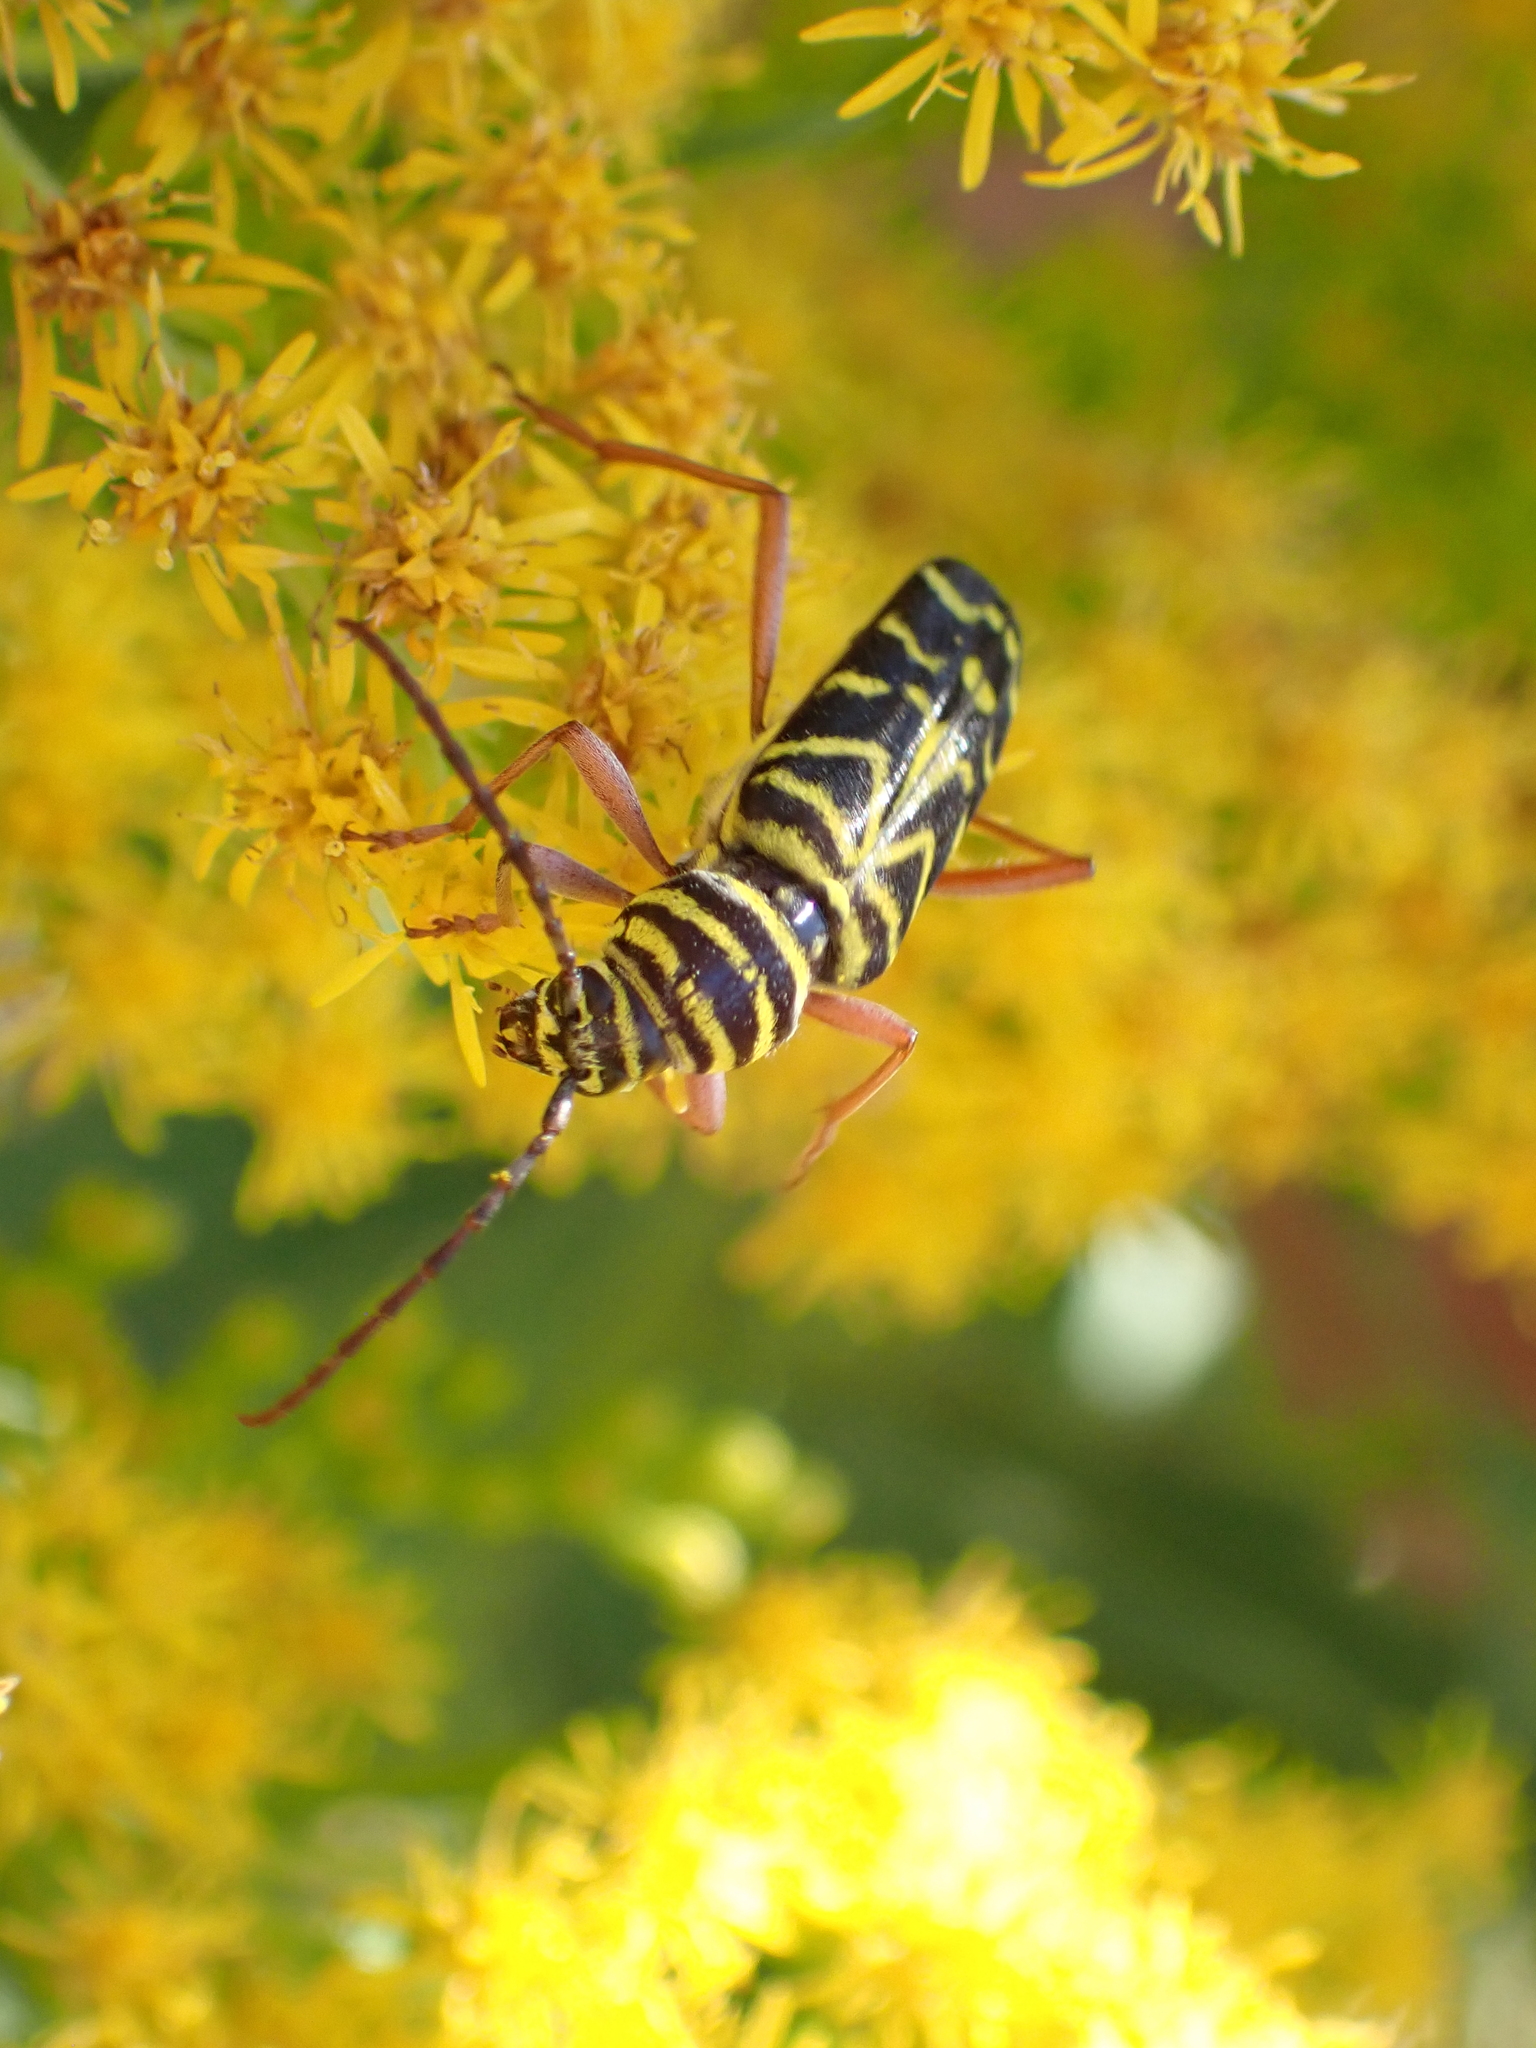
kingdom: Animalia
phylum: Arthropoda
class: Insecta
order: Coleoptera
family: Cerambycidae
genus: Megacyllene
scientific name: Megacyllene robiniae
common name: Locust borer
